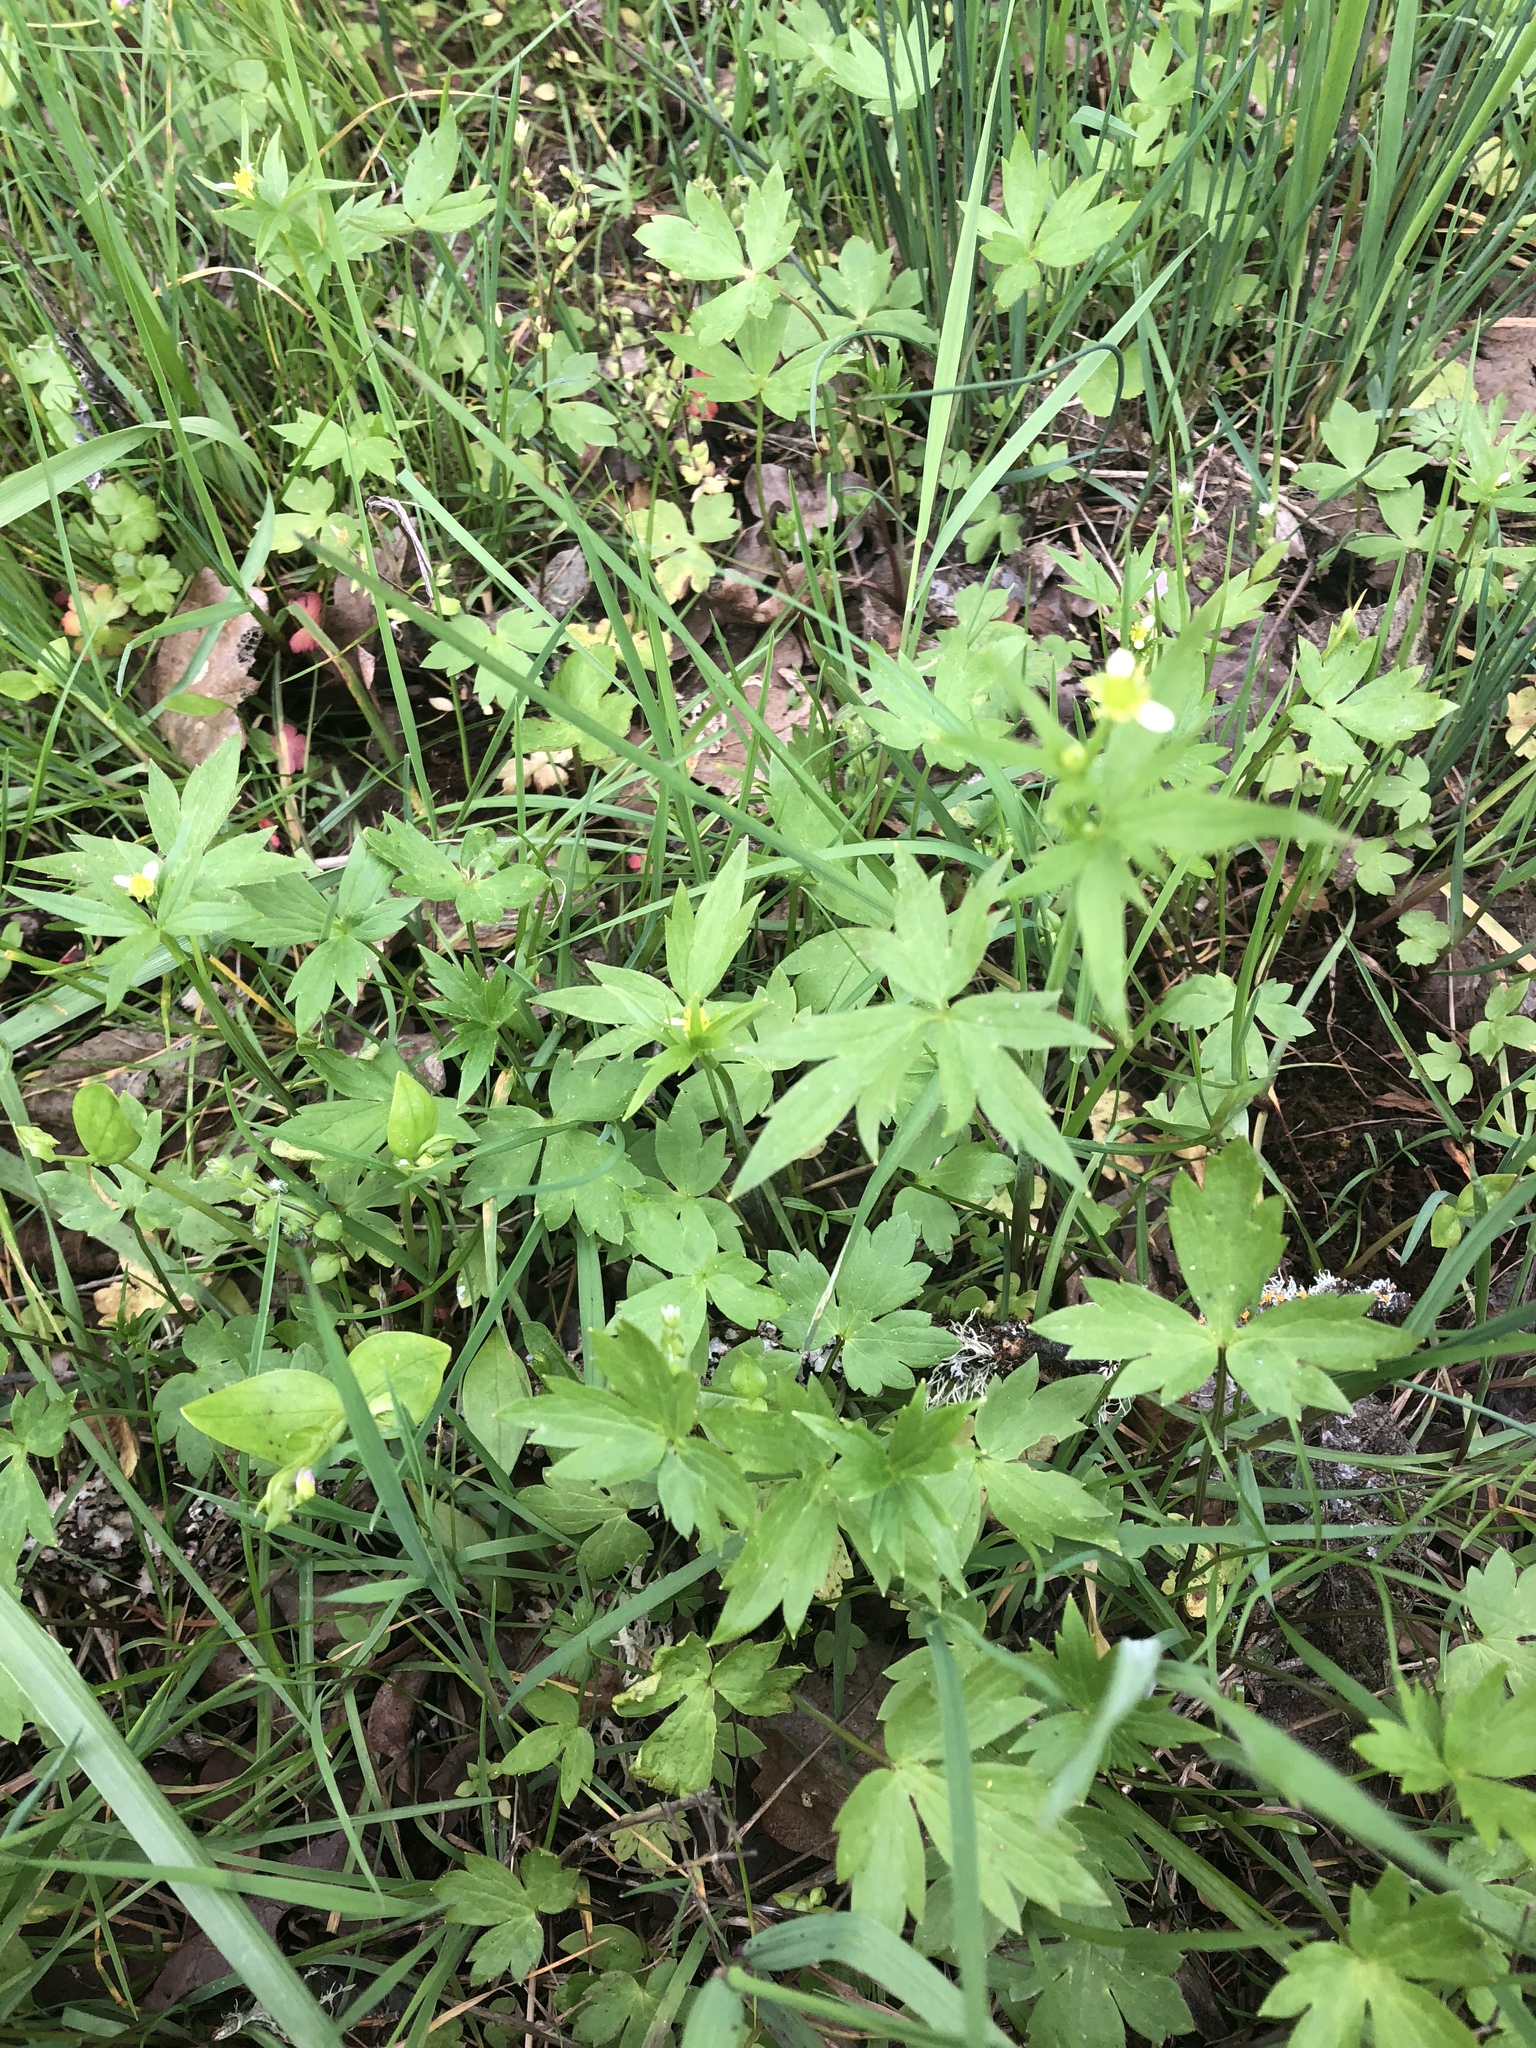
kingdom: Plantae
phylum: Tracheophyta
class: Magnoliopsida
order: Ranunculales
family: Ranunculaceae
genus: Ranunculus
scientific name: Ranunculus uncinatus
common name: Little buttercup
